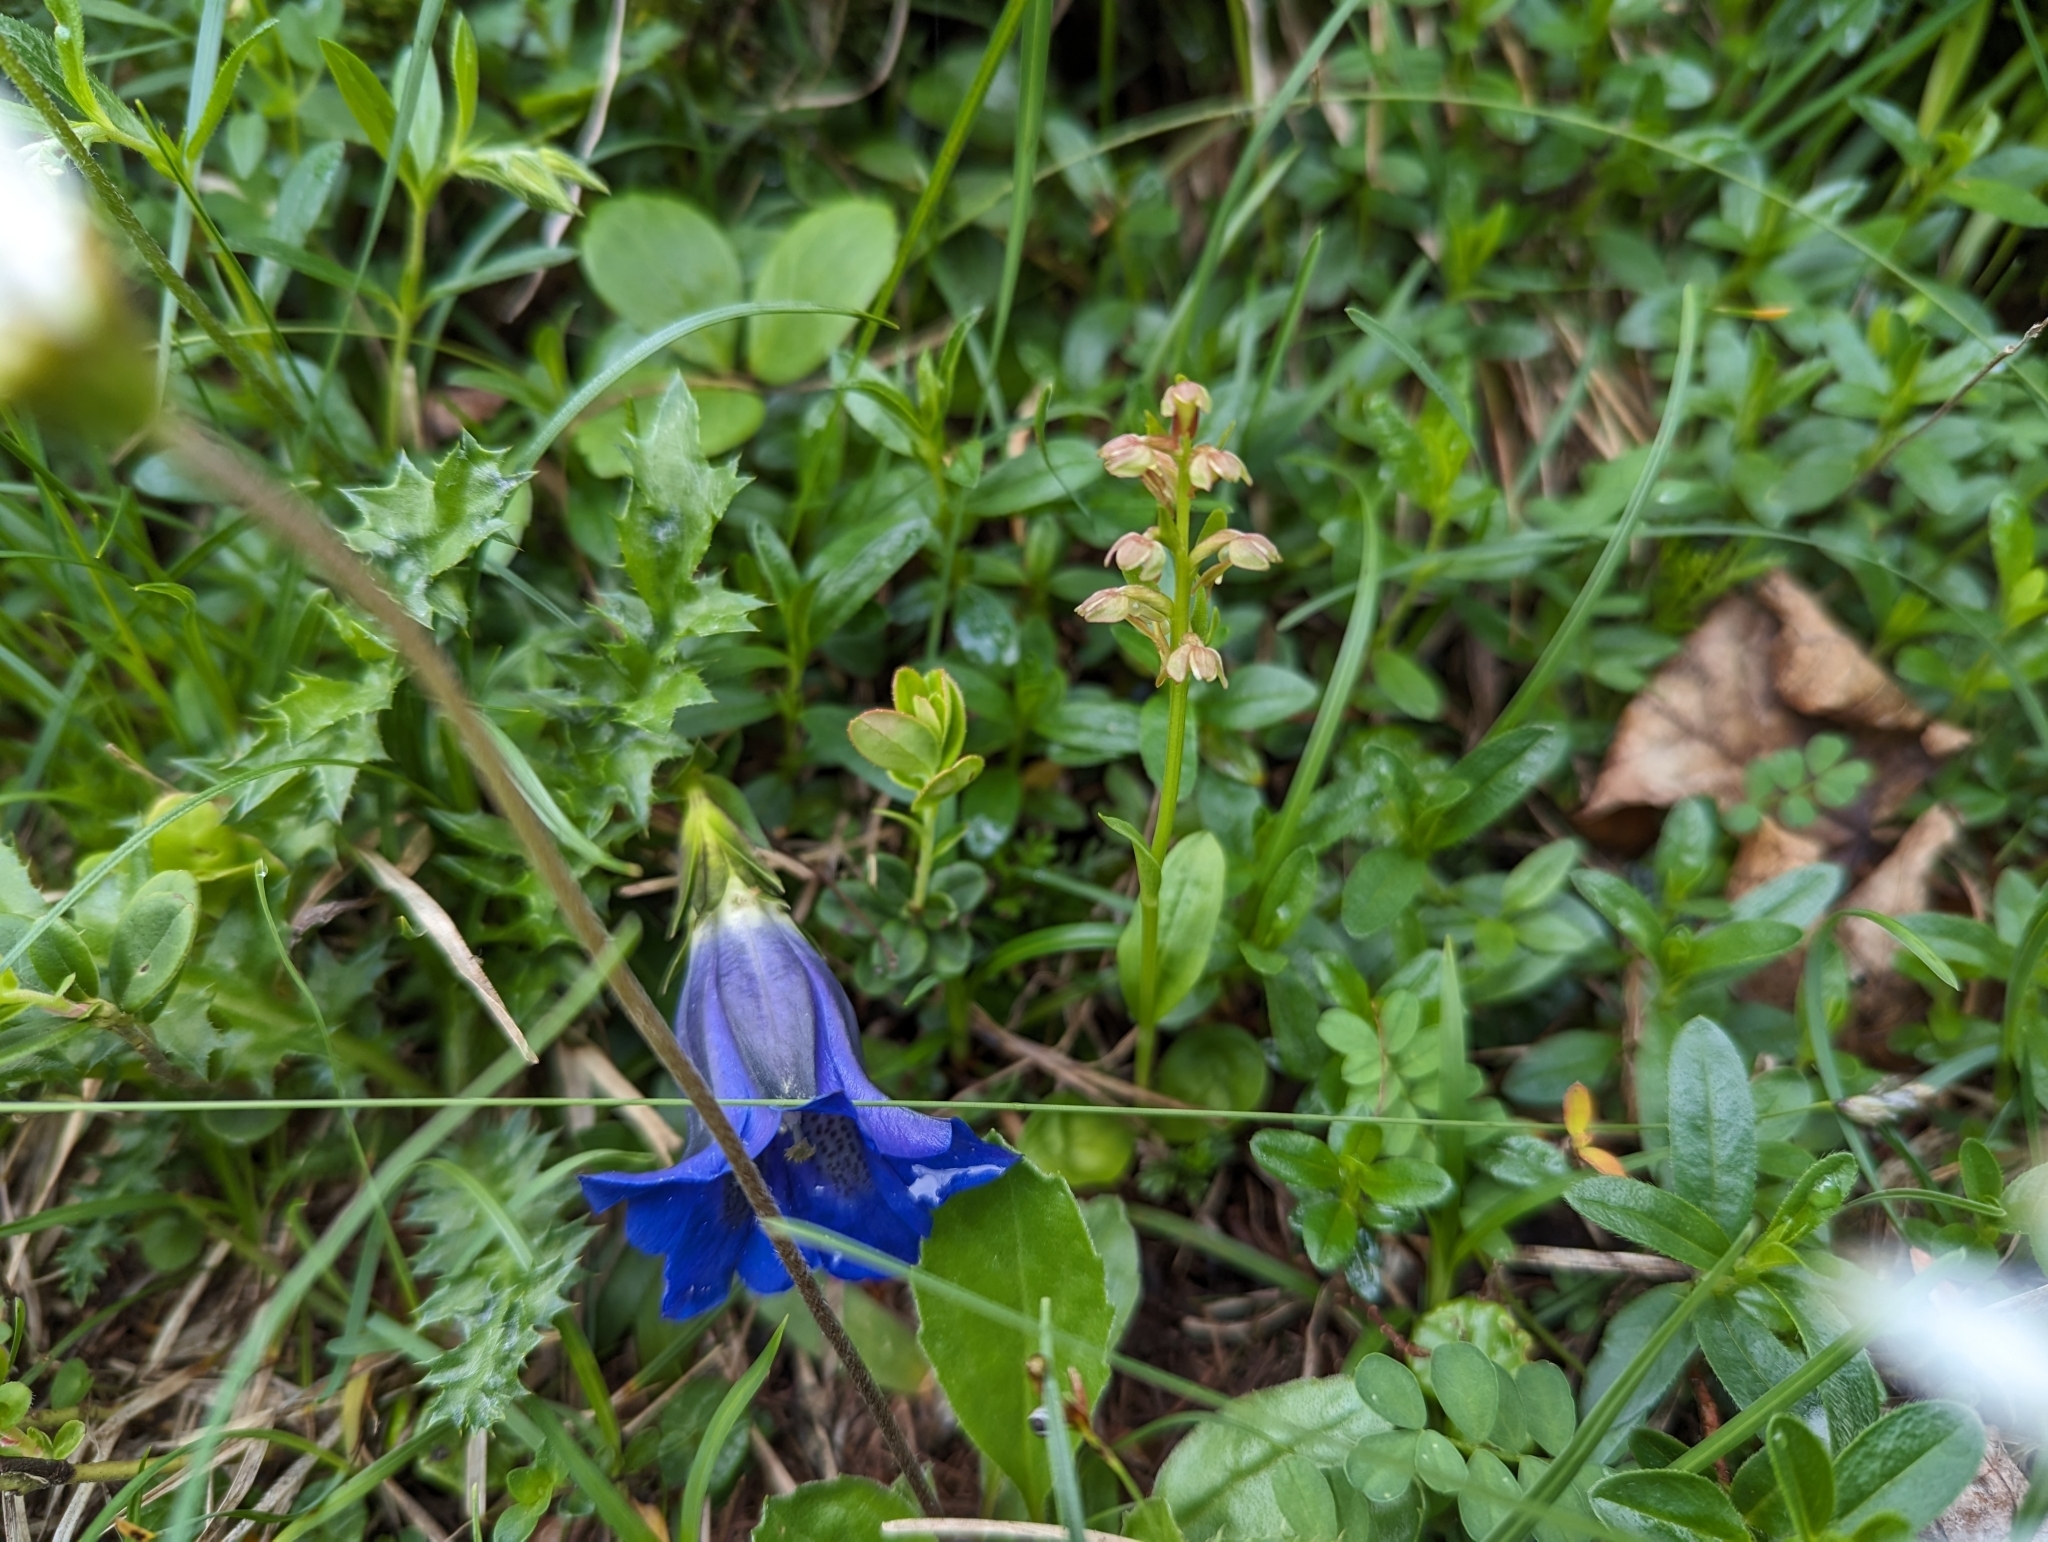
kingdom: Plantae
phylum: Tracheophyta
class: Liliopsida
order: Asparagales
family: Orchidaceae
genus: Dactylorhiza
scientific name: Dactylorhiza viridis
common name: Longbract frog orchid
